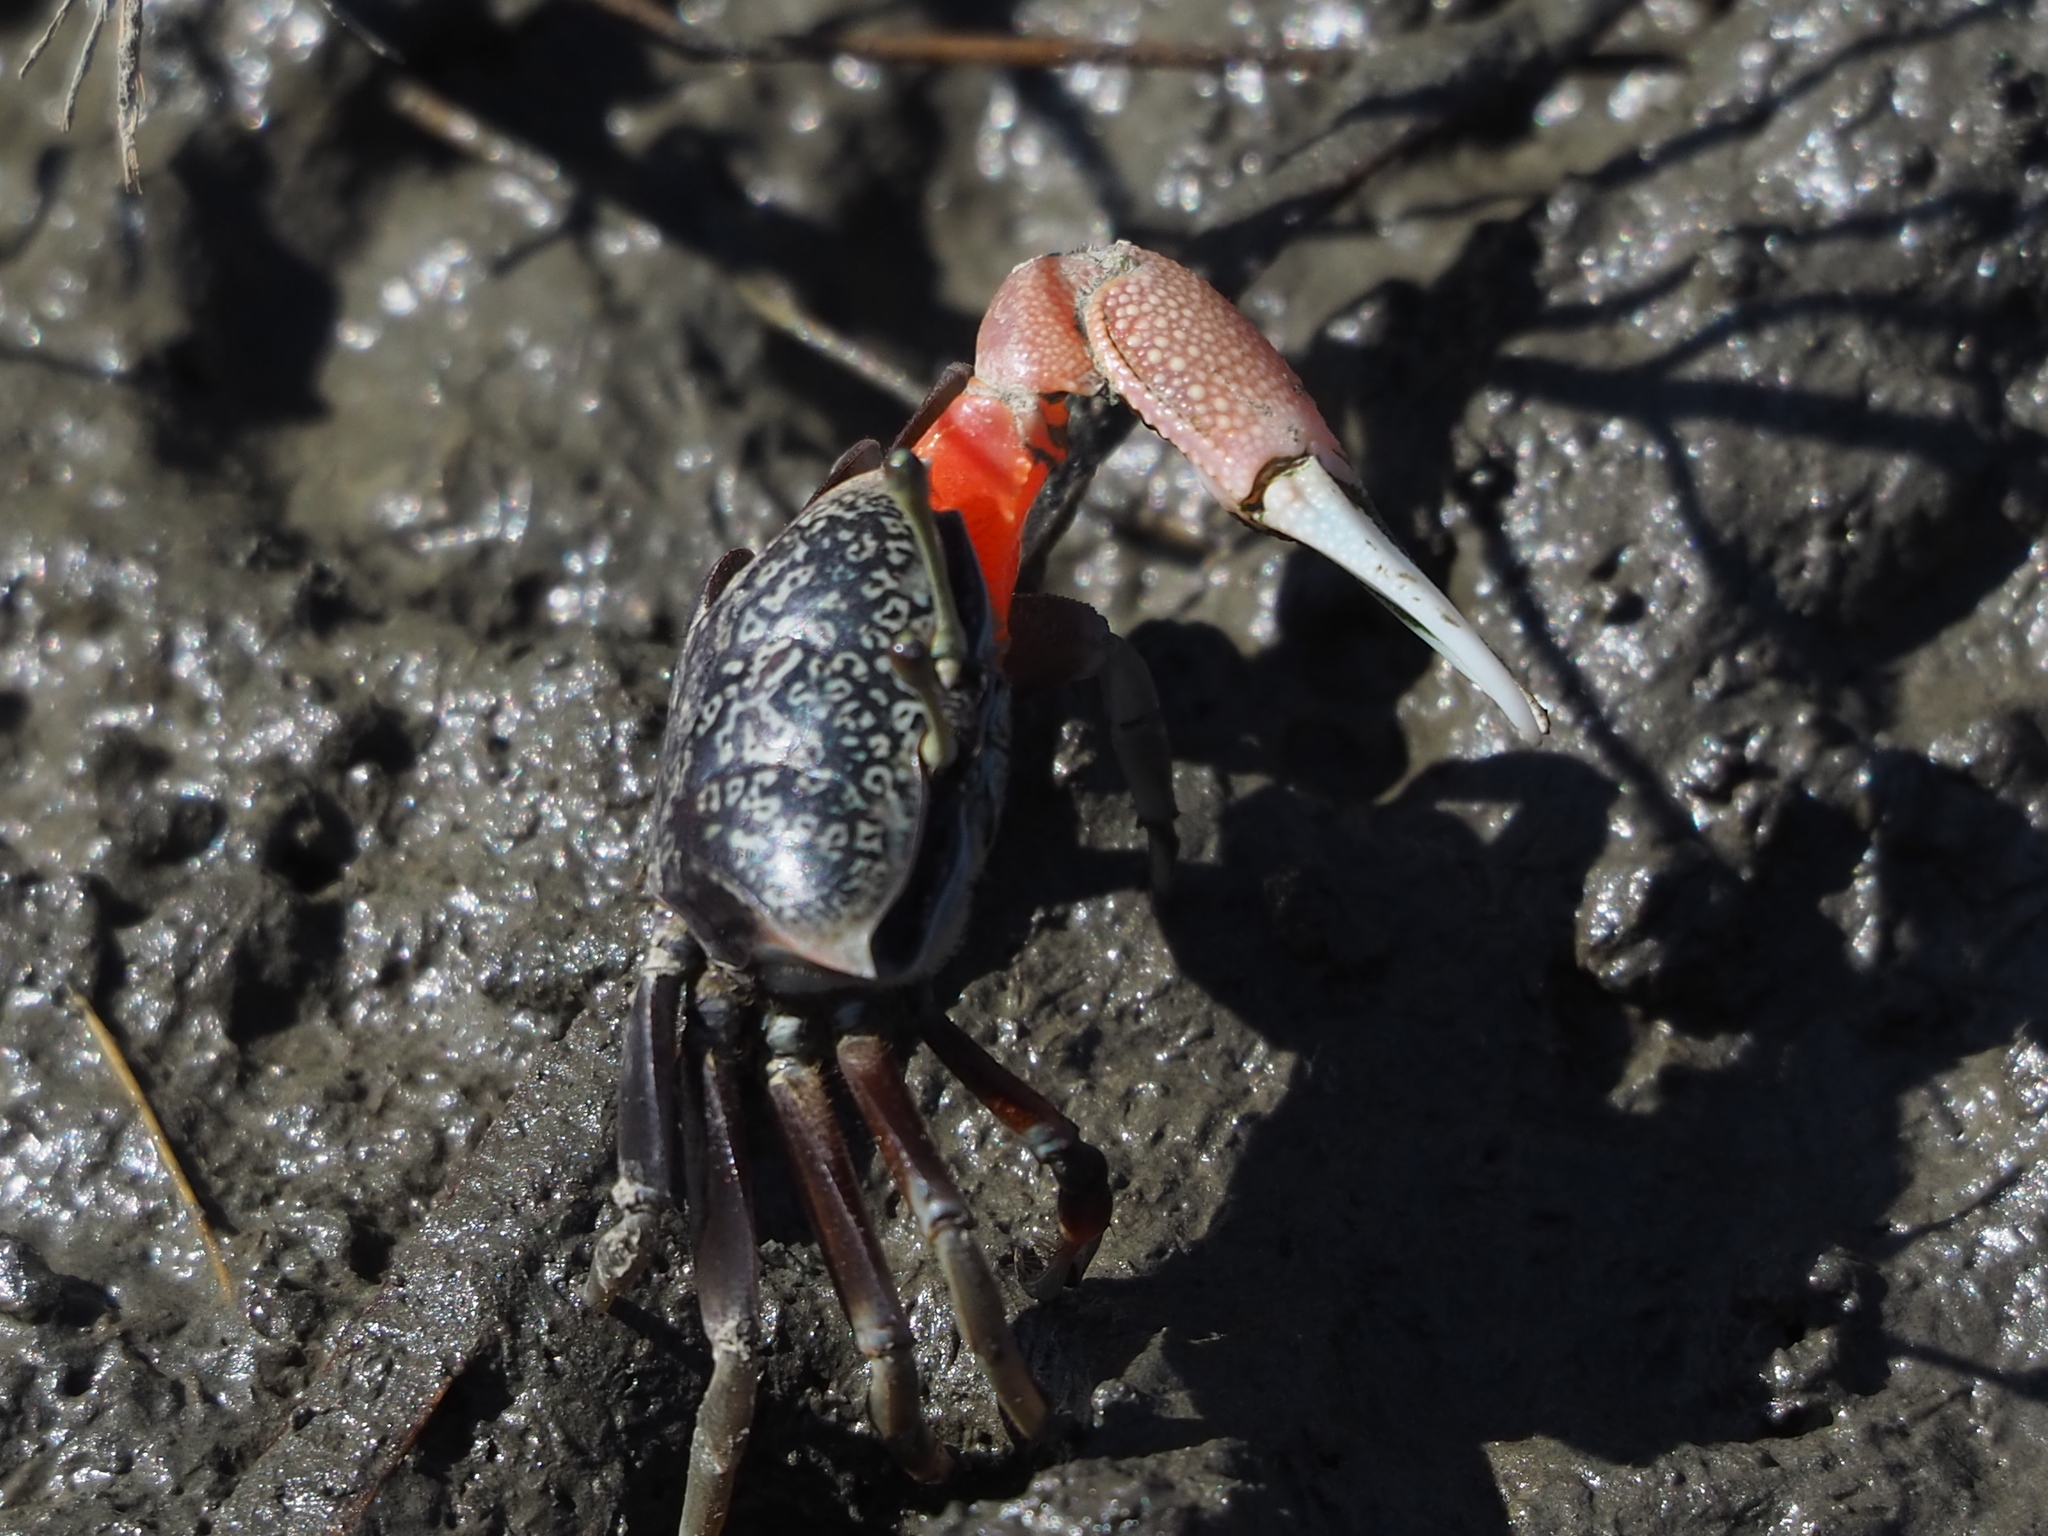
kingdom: Animalia
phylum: Arthropoda
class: Malacostraca
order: Decapoda
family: Ocypodidae
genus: Tubuca
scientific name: Tubuca arcuata
